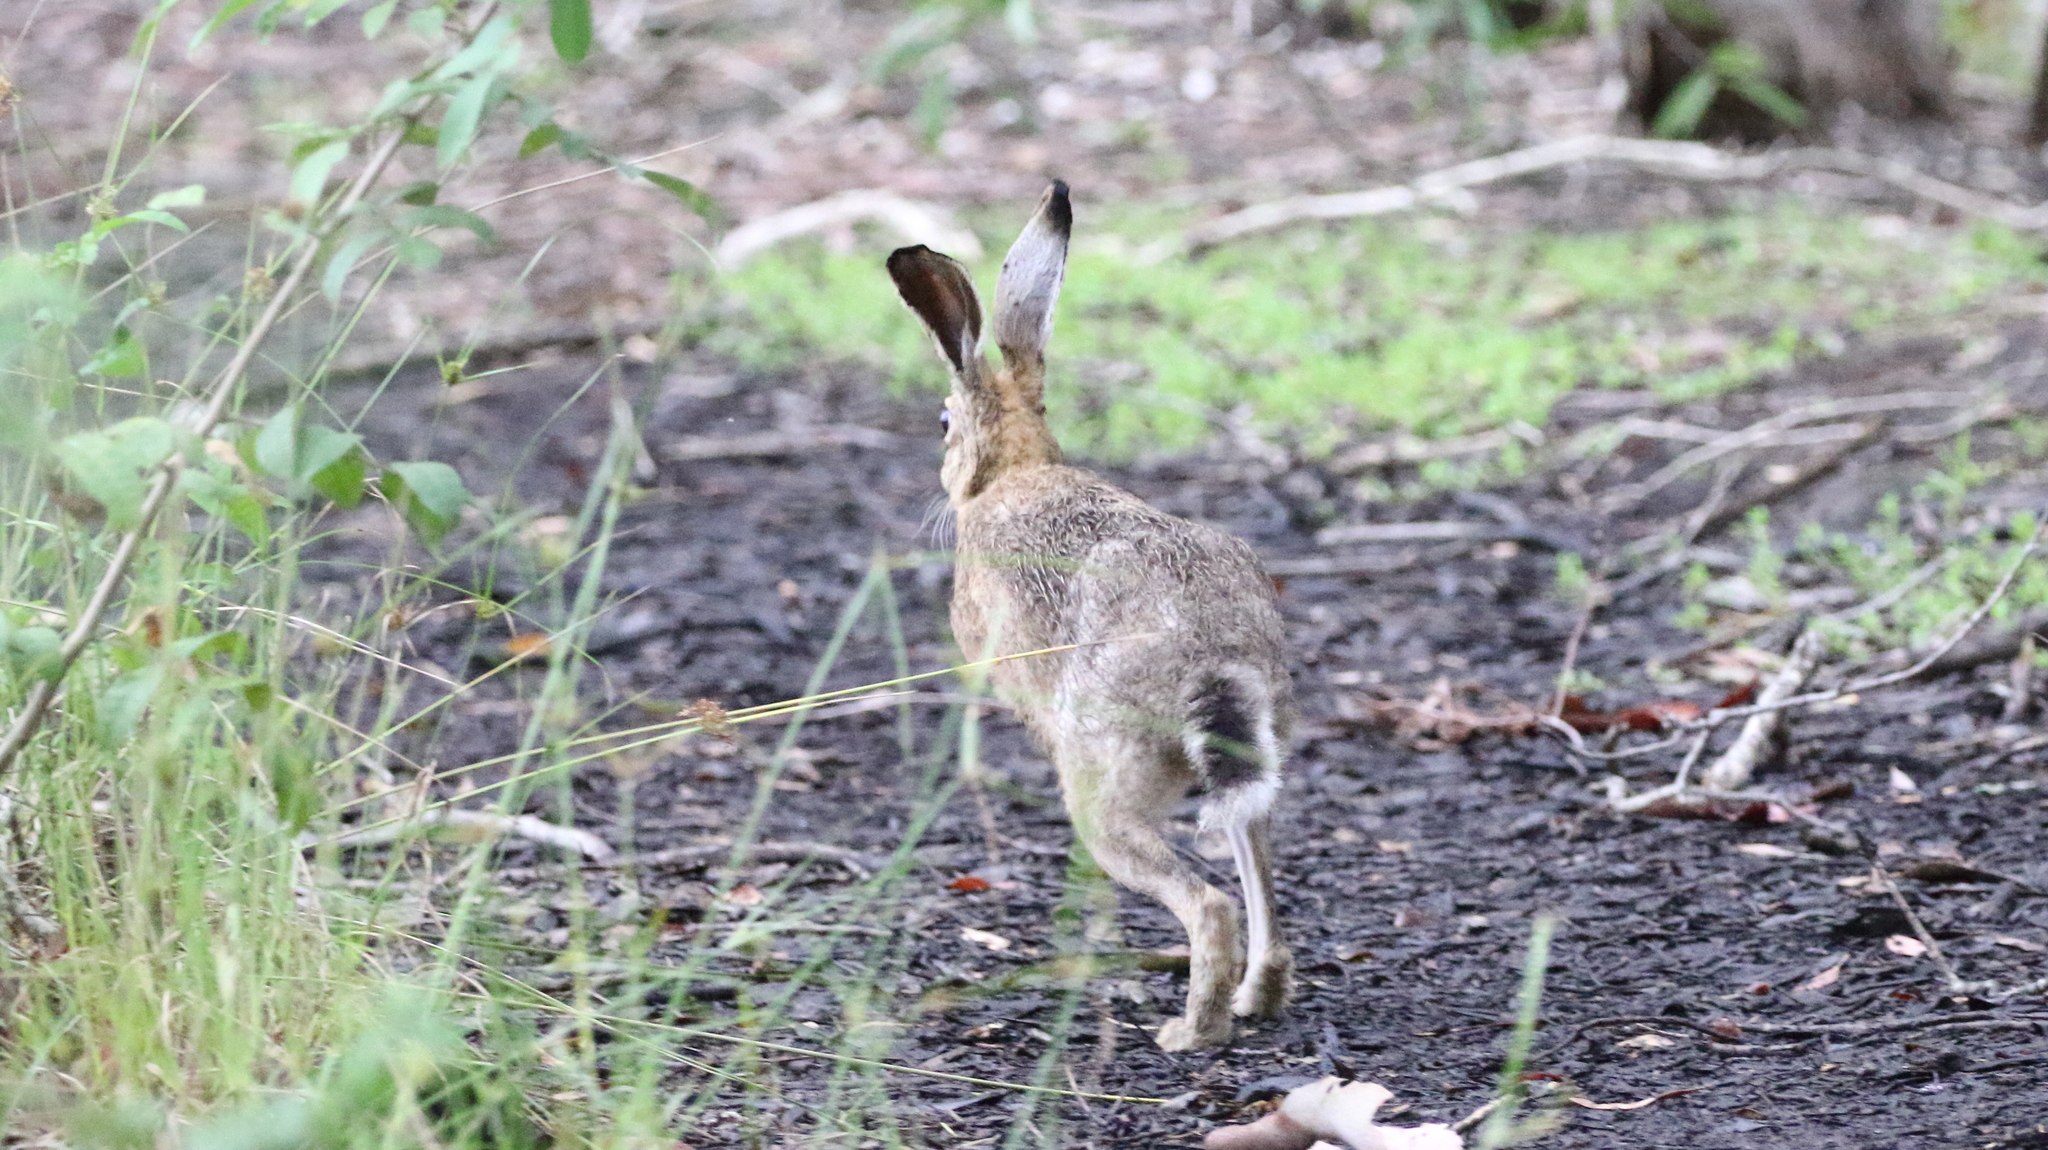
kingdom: Animalia
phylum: Chordata
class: Mammalia
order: Lagomorpha
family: Leporidae
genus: Lepus
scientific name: Lepus europaeus
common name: European hare
